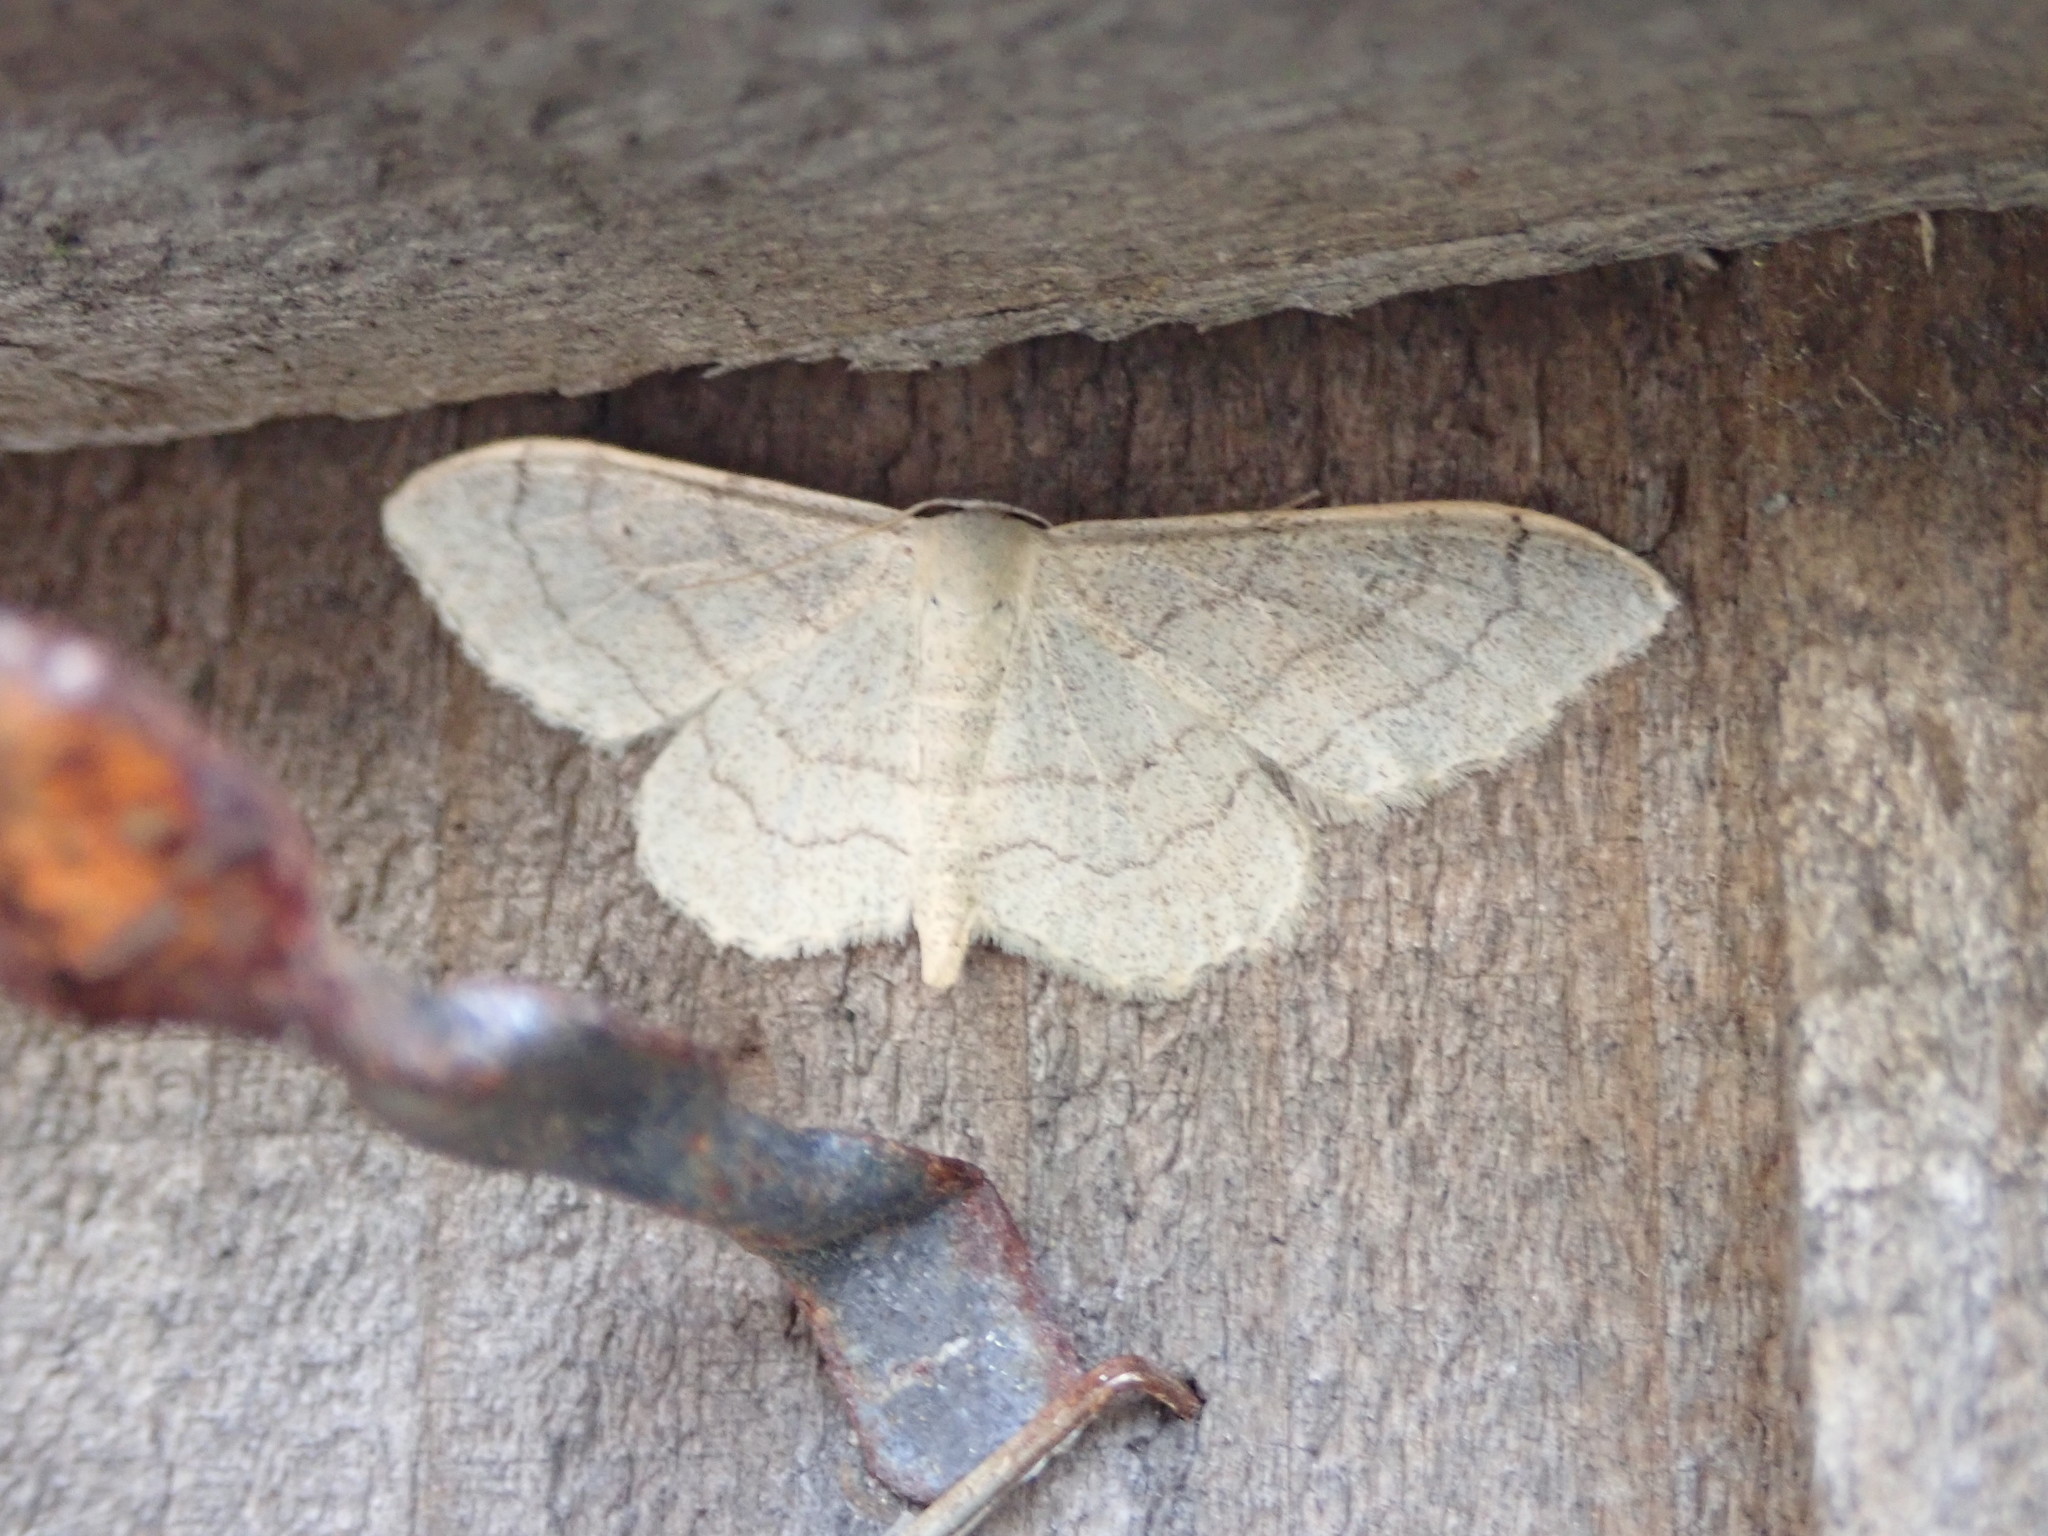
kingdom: Animalia
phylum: Arthropoda
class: Insecta
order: Lepidoptera
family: Geometridae
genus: Idaea
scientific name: Idaea aversata
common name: Riband wave
